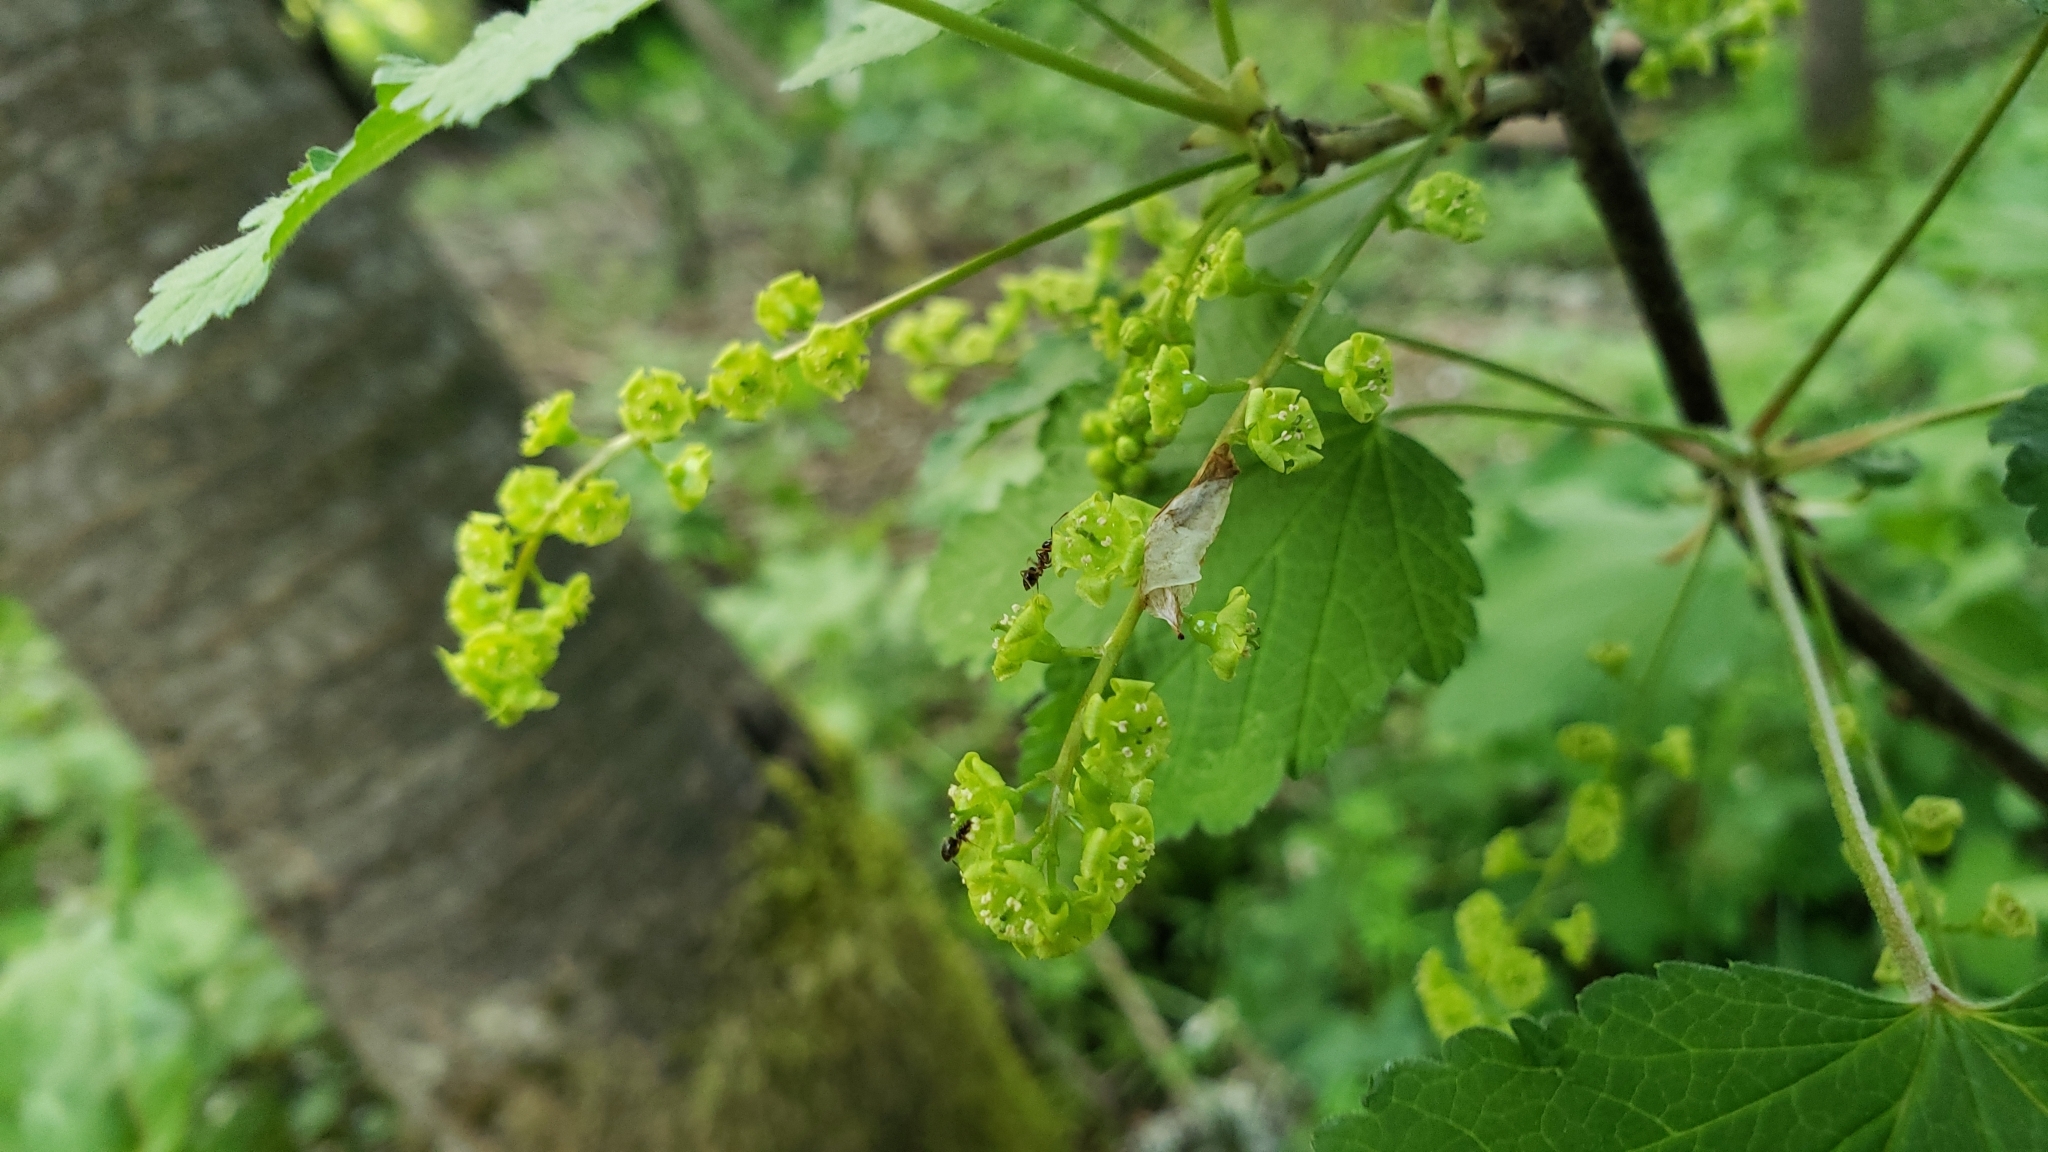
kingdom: Plantae
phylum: Tracheophyta
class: Magnoliopsida
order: Saxifragales
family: Grossulariaceae
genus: Ribes
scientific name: Ribes rubrum
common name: Red currant
